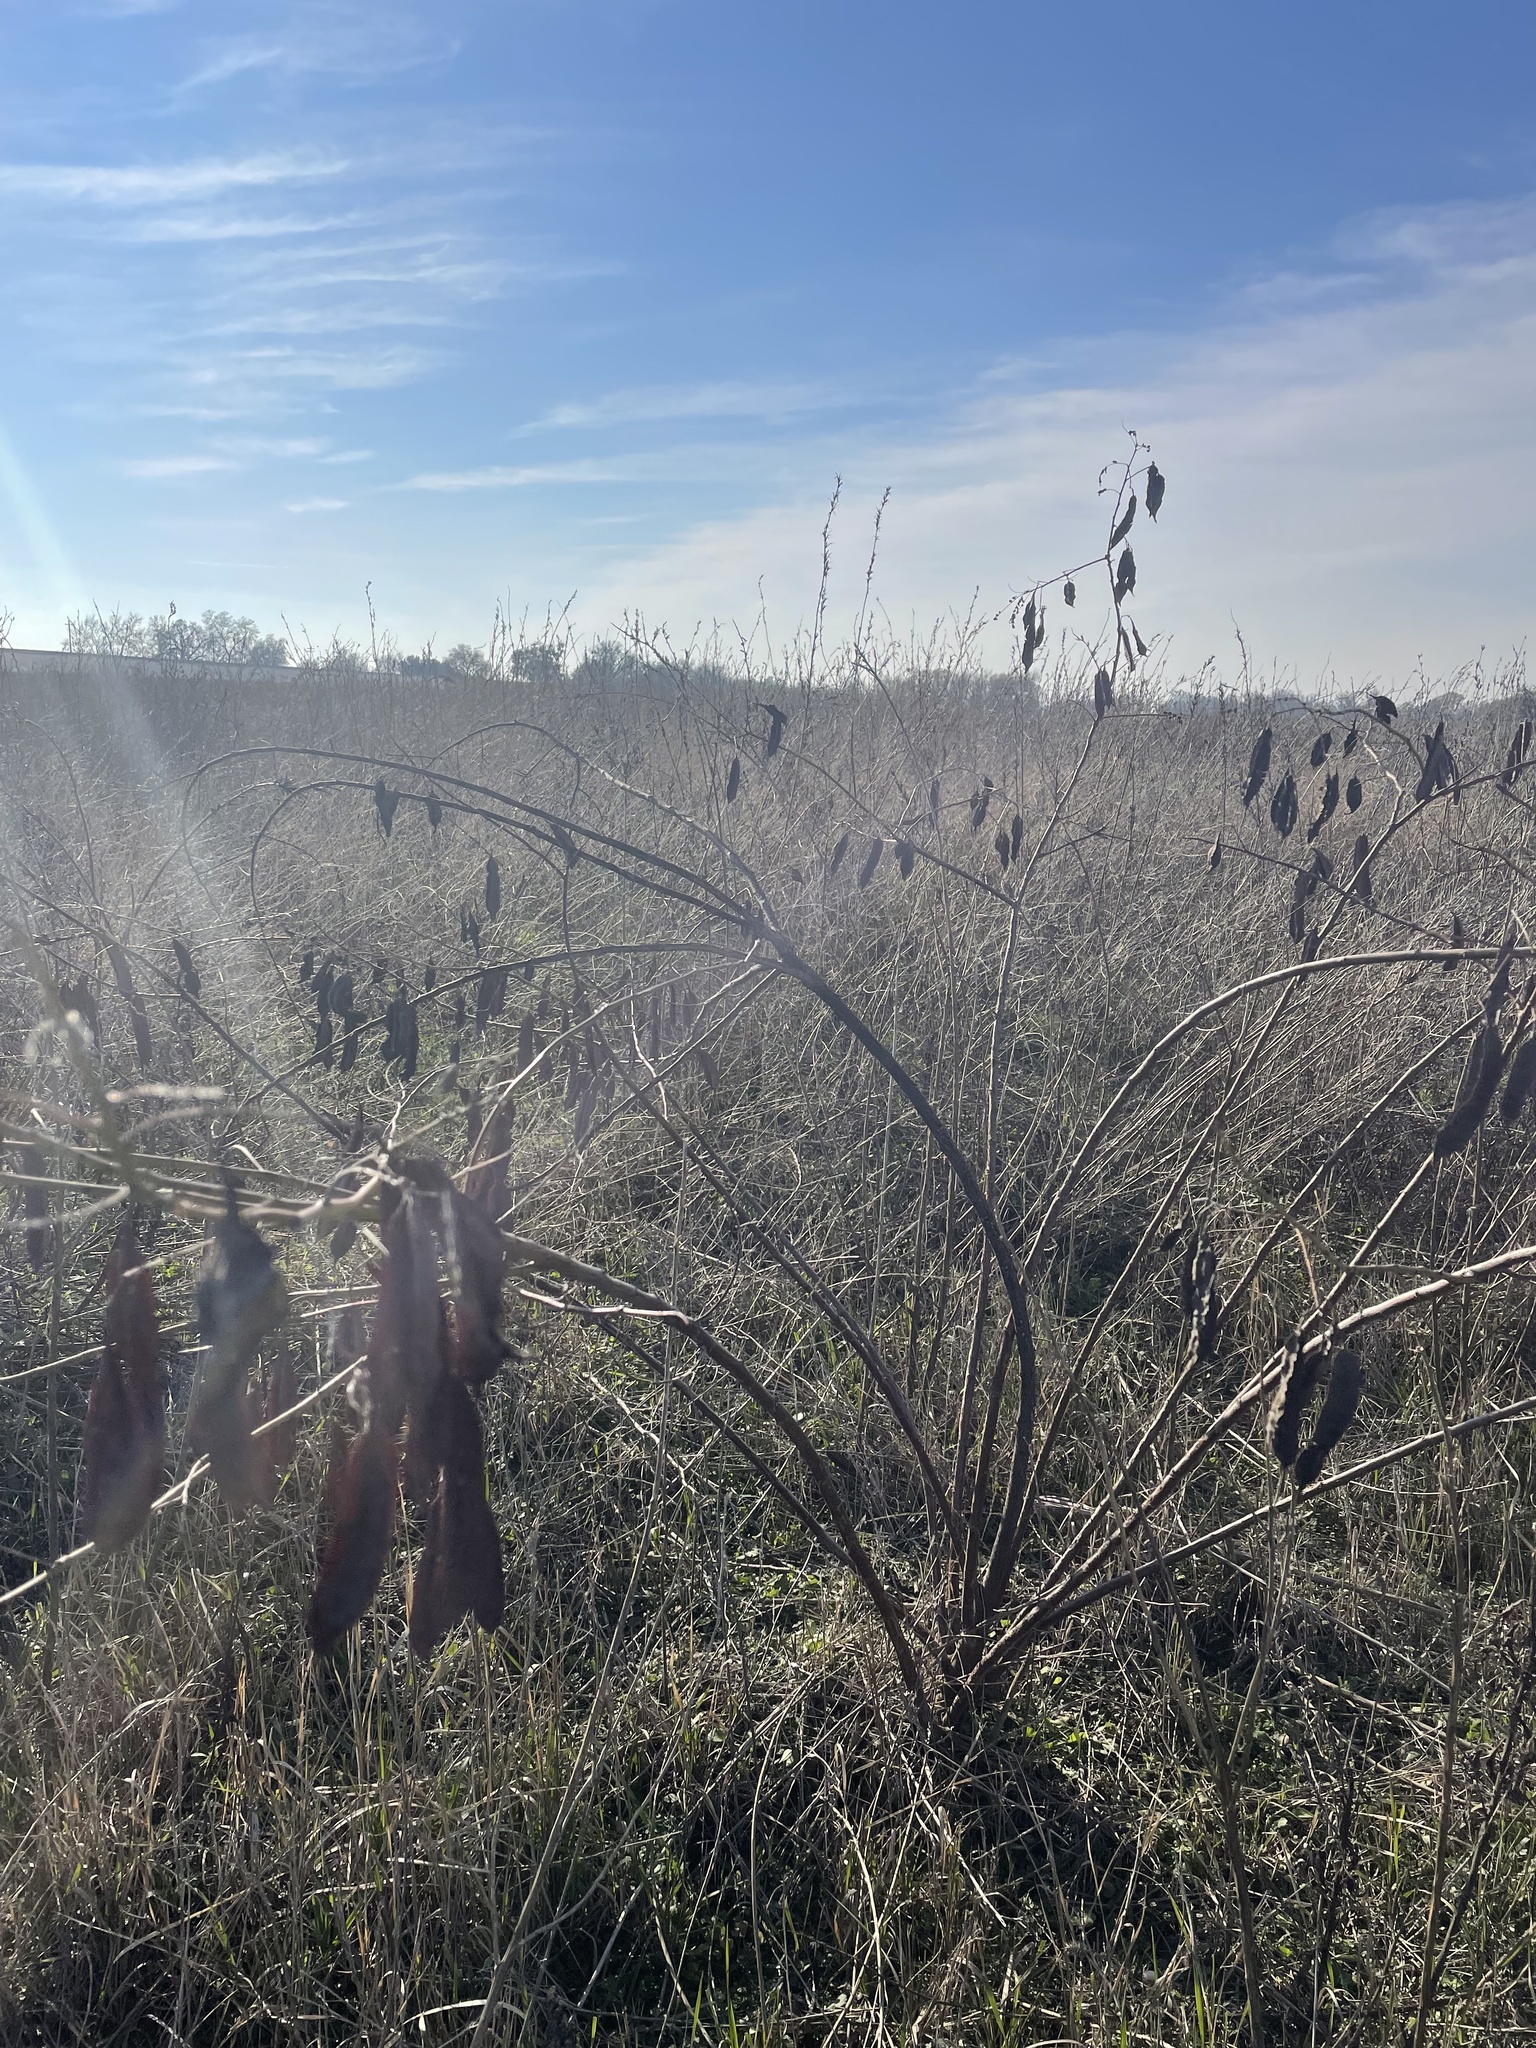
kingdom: Plantae
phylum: Tracheophyta
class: Magnoliopsida
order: Fabales
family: Fabaceae
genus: Sesbania
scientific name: Sesbania punicea
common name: Rattlebox
